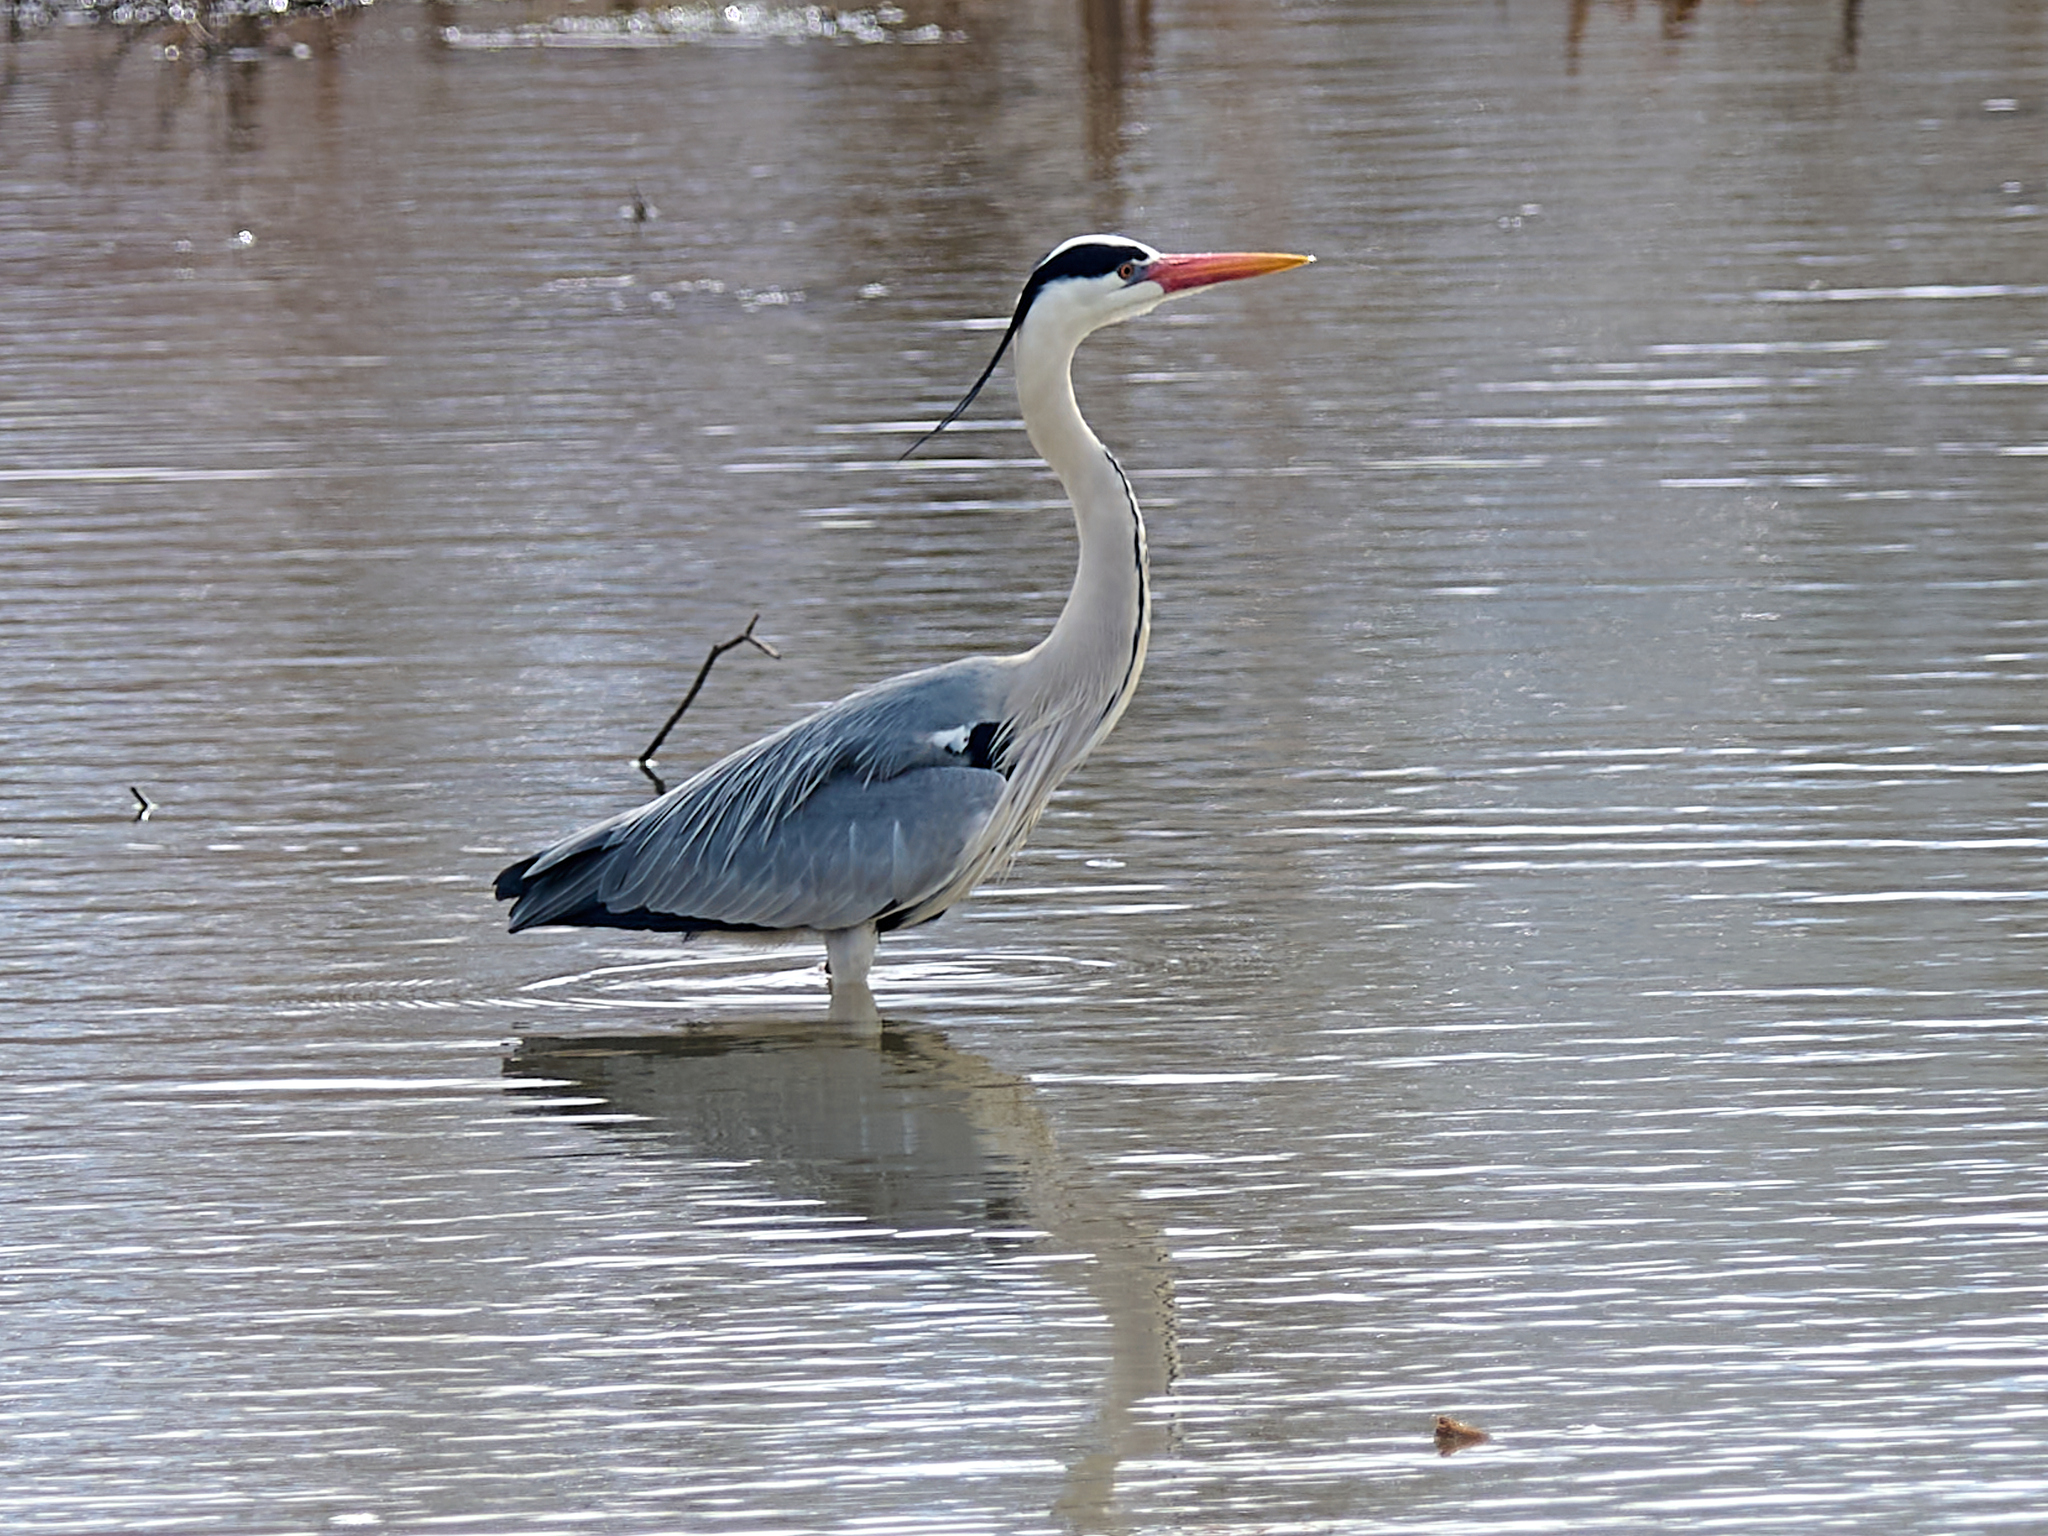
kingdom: Animalia
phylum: Chordata
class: Aves
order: Pelecaniformes
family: Ardeidae
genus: Ardea
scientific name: Ardea cinerea
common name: Grey heron
